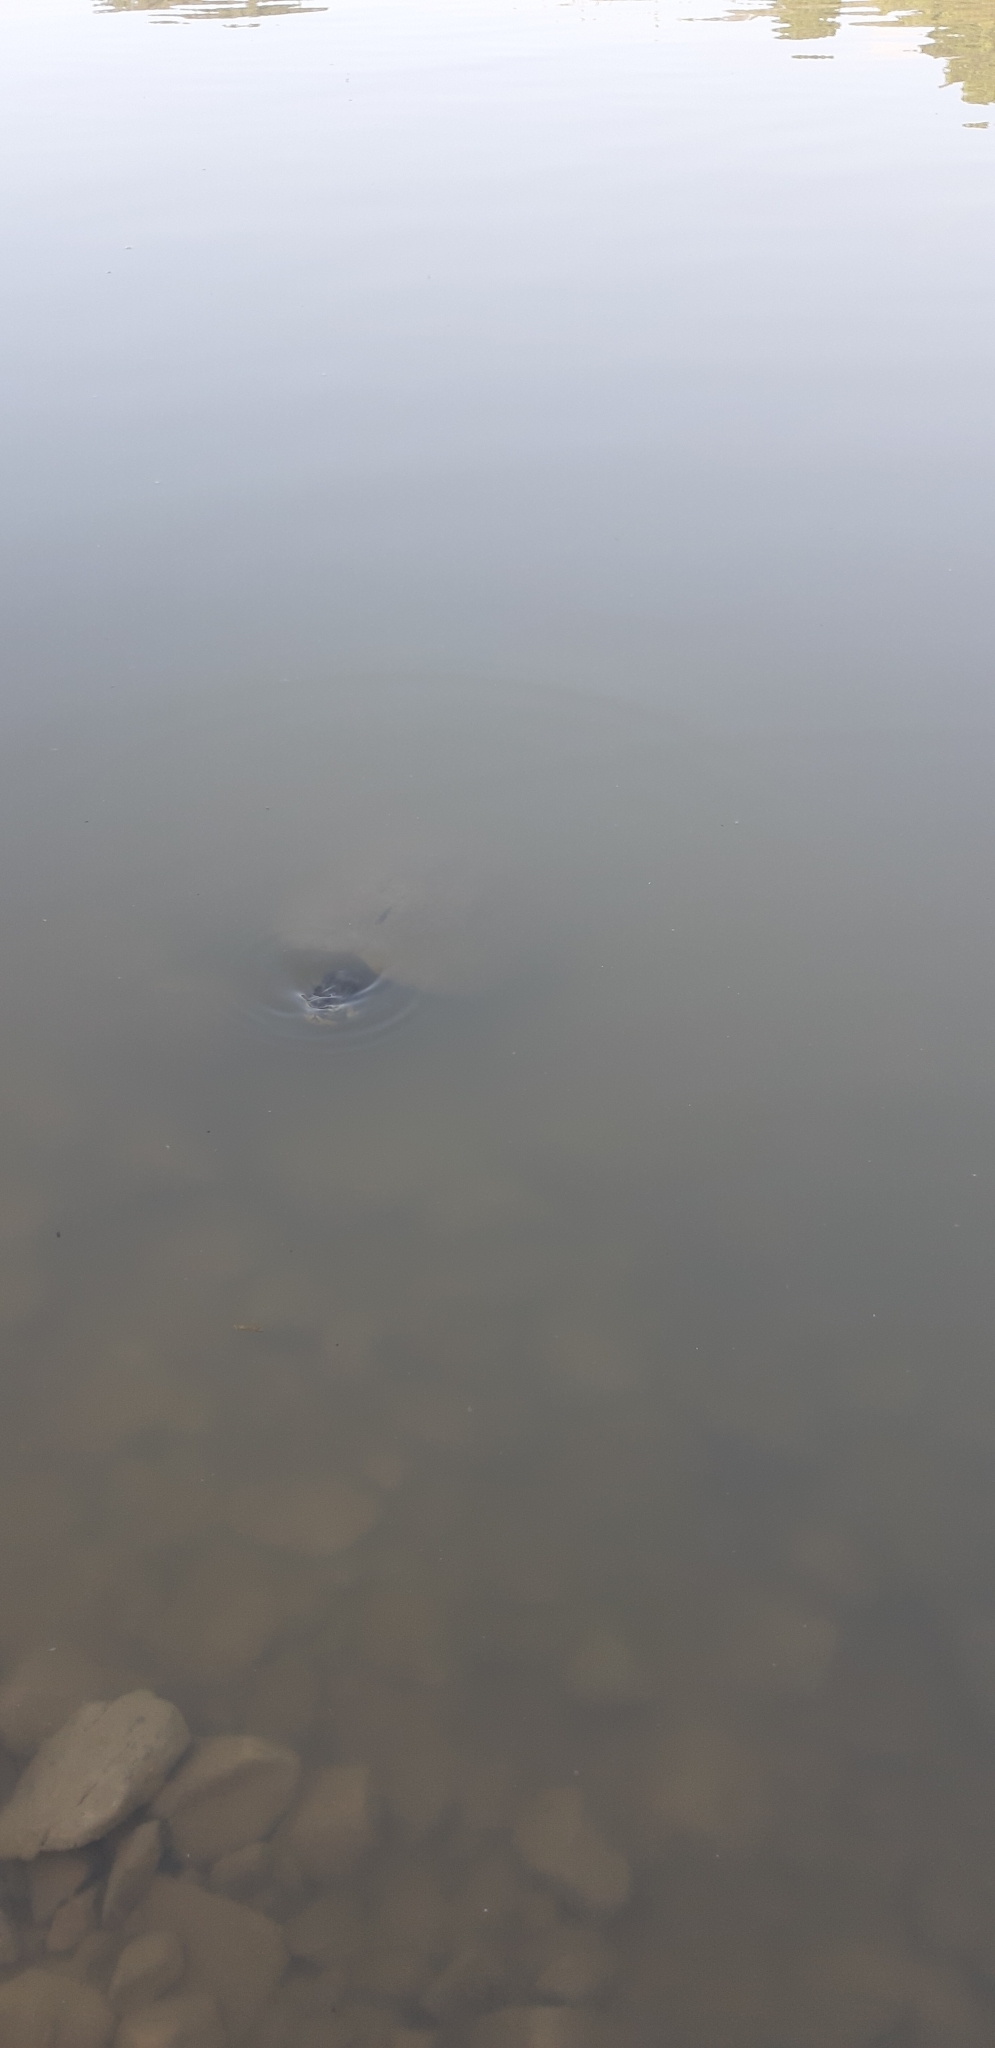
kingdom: Animalia
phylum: Chordata
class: Testudines
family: Emydidae
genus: Trachemys
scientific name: Trachemys scripta
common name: Slider
